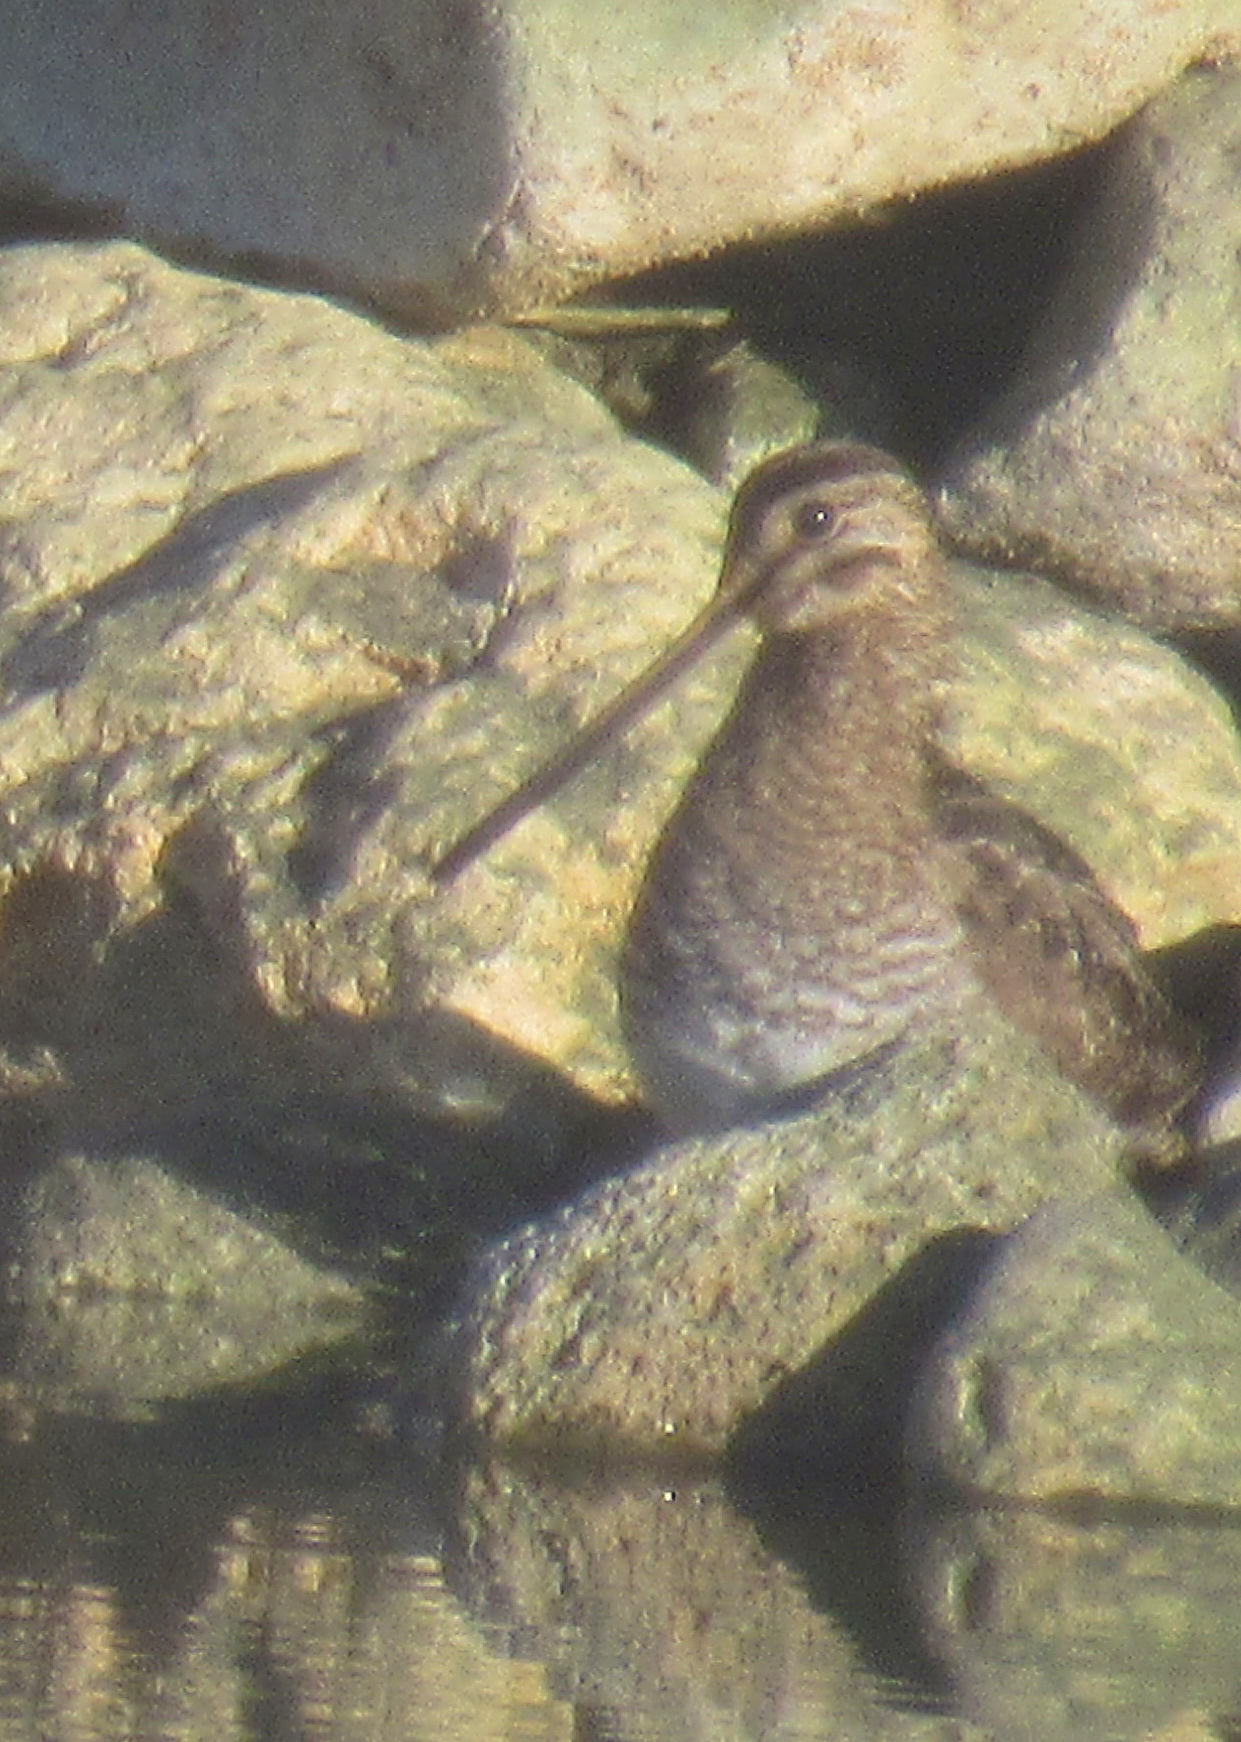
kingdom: Animalia
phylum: Chordata
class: Aves
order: Charadriiformes
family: Scolopacidae
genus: Gallinago
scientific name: Gallinago delicata
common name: Wilson's snipe
